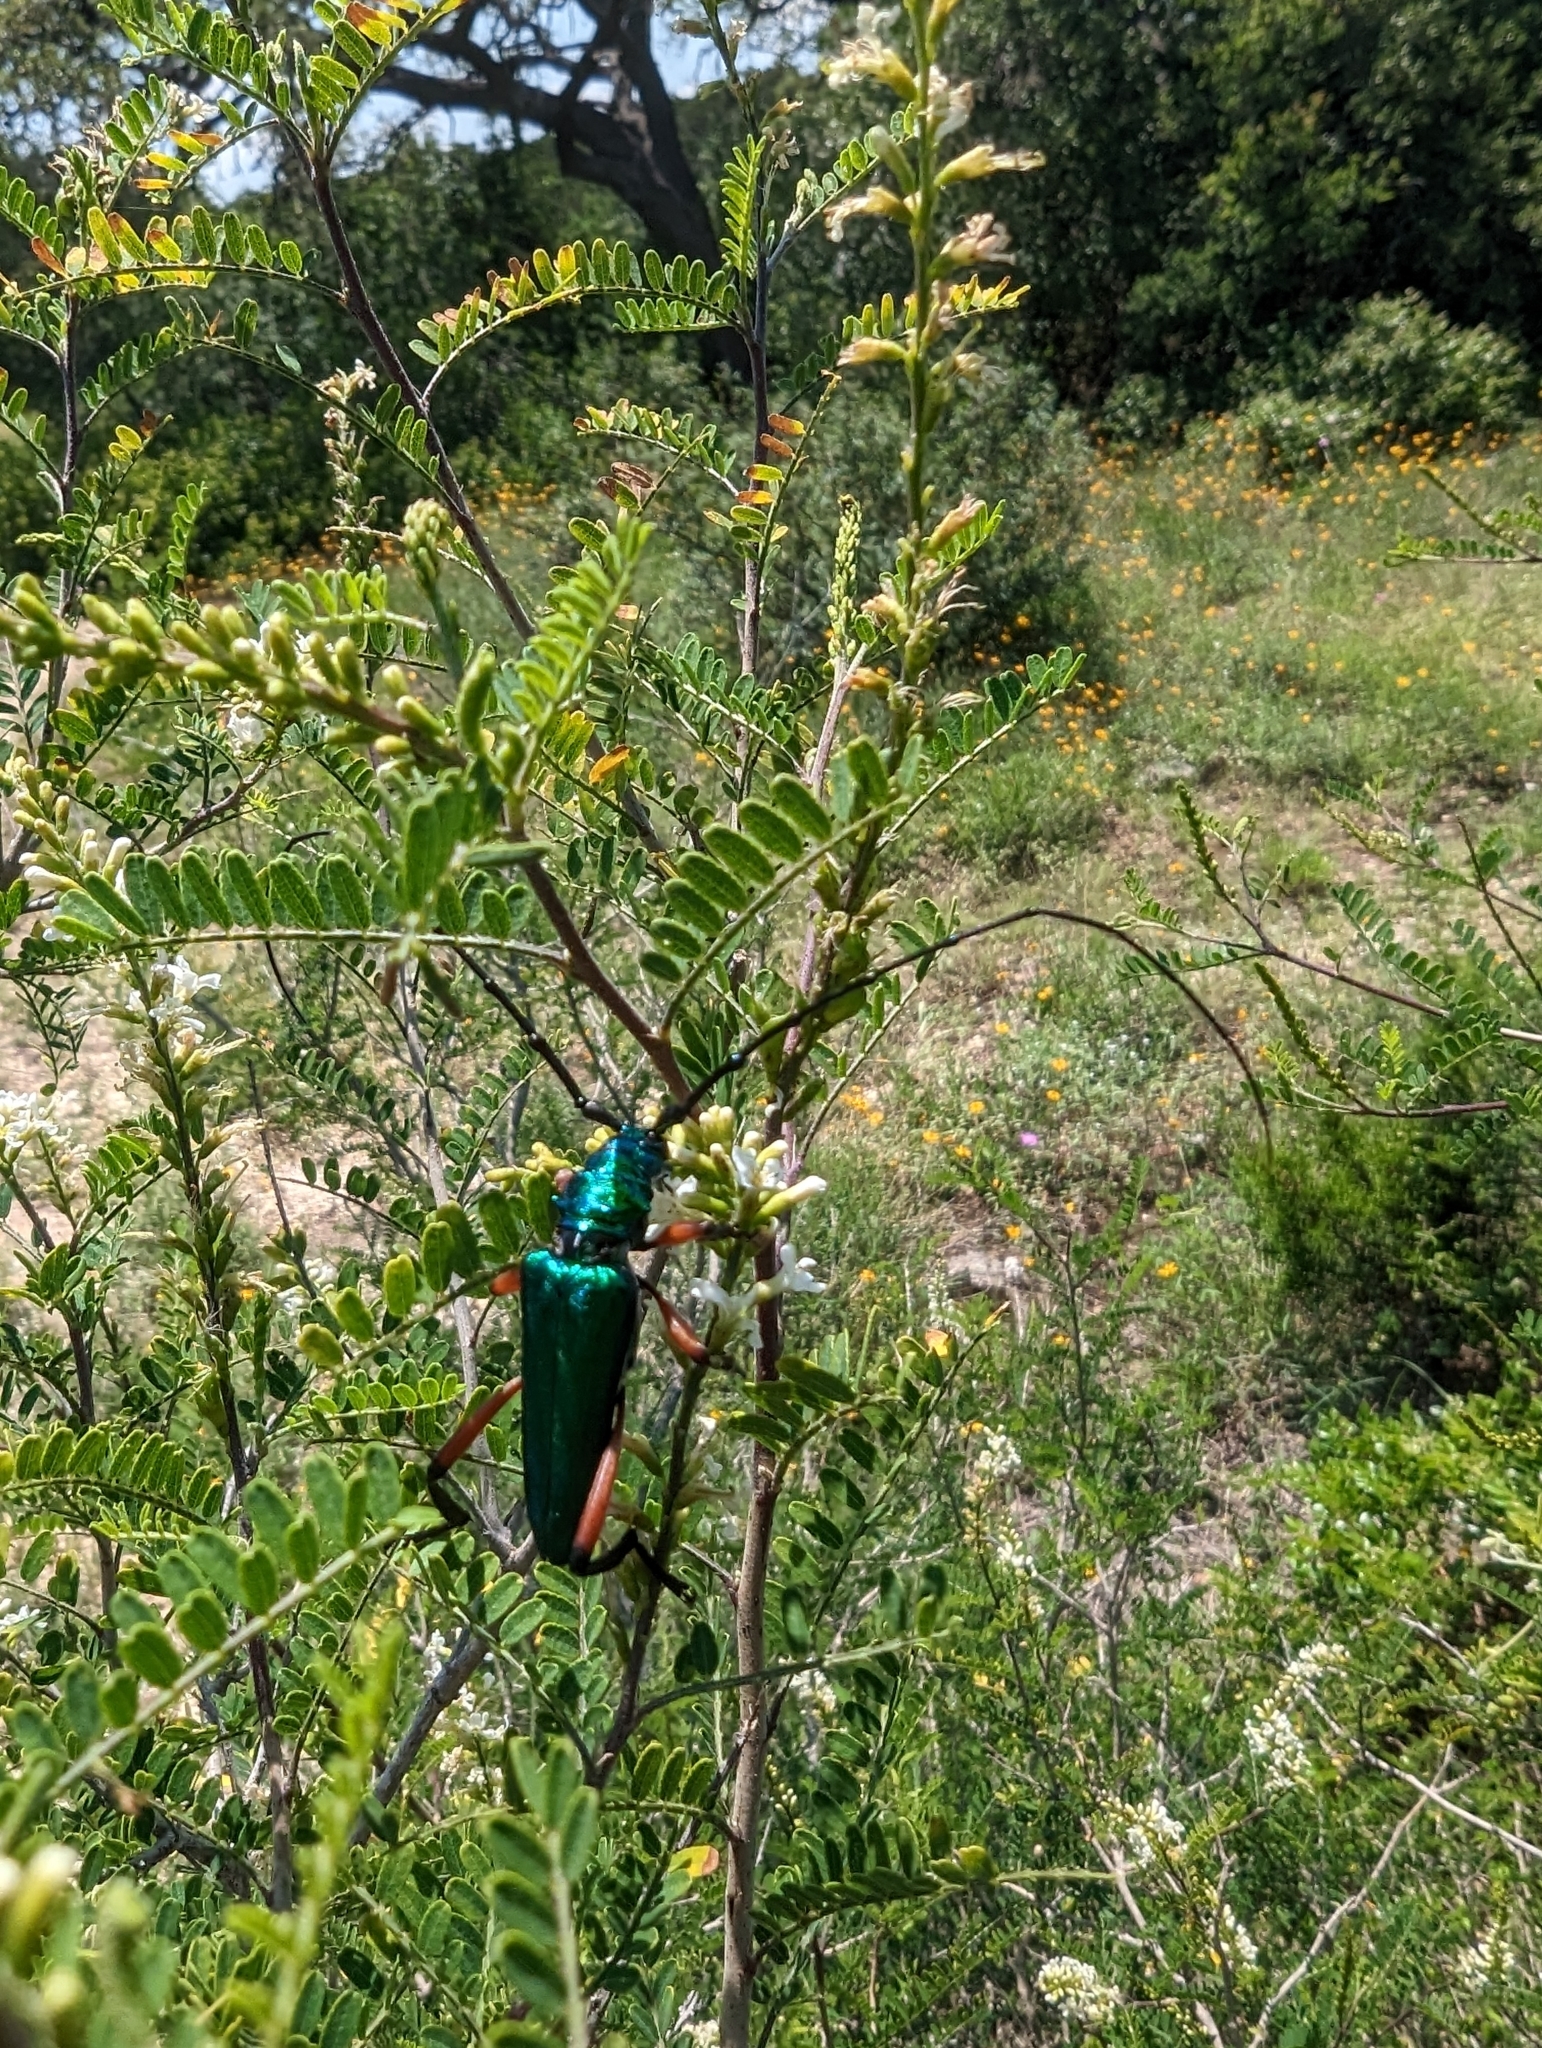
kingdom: Animalia
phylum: Arthropoda
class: Insecta
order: Coleoptera
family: Cerambycidae
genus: Plinthocoelium
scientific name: Plinthocoelium suaveolens
